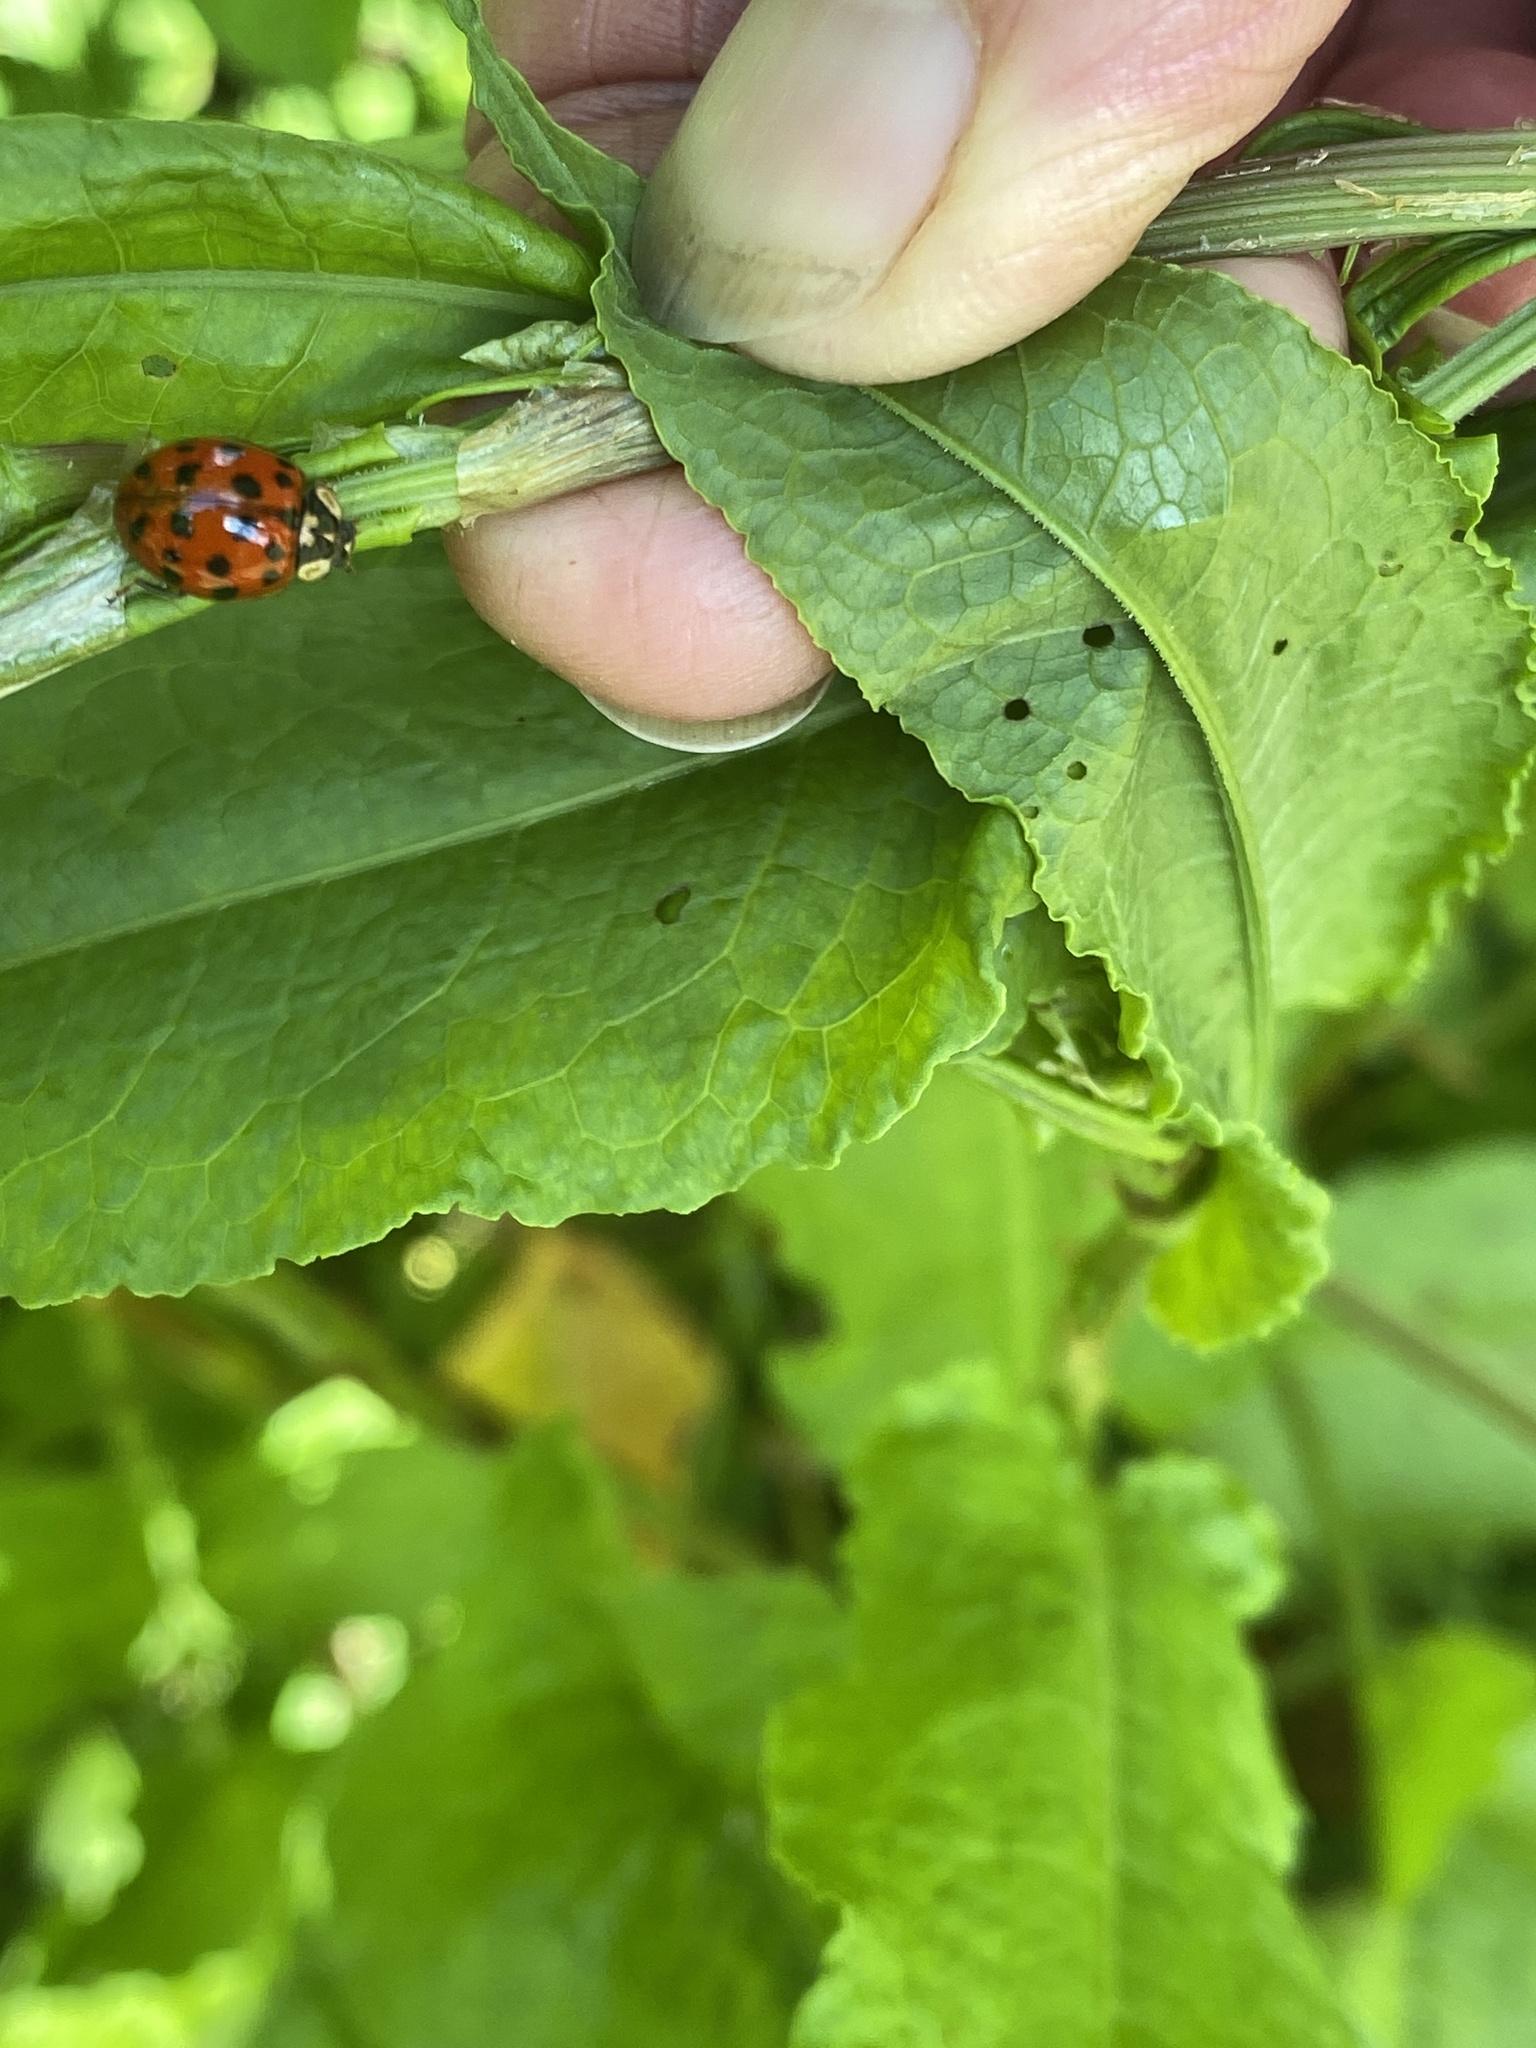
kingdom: Animalia
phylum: Arthropoda
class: Insecta
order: Coleoptera
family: Coccinellidae
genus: Harmonia
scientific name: Harmonia axyridis
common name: Harlequin ladybird
